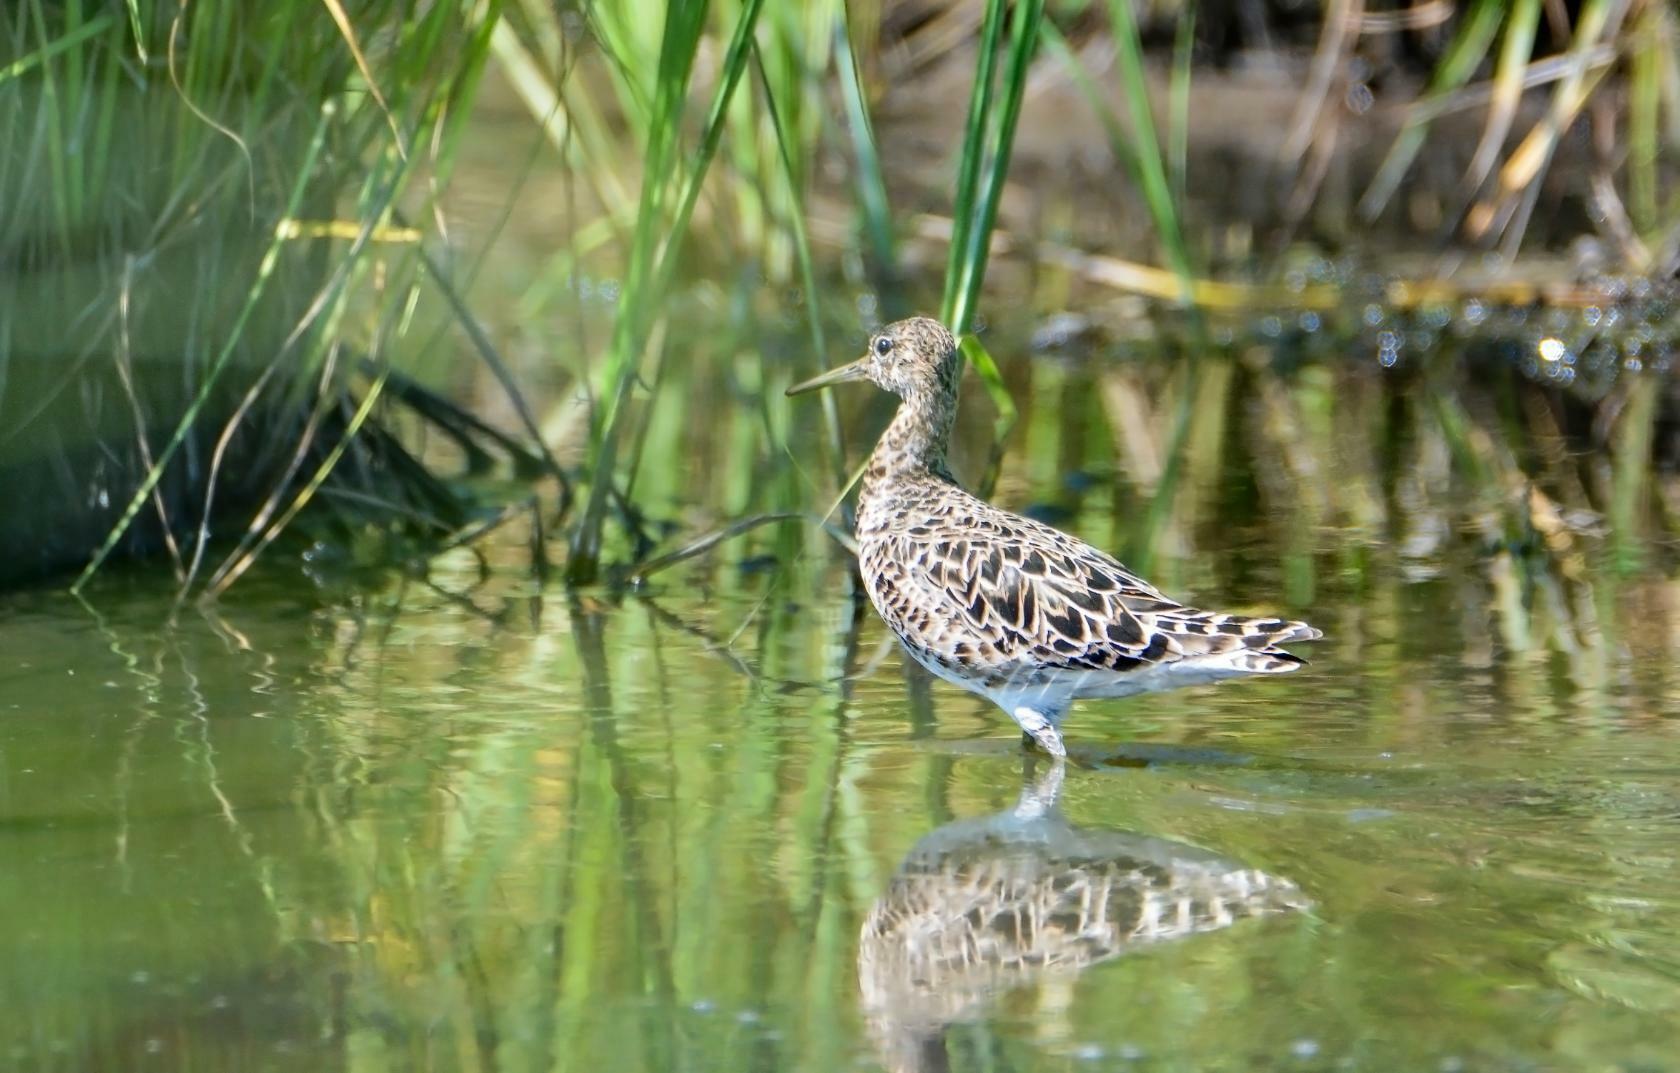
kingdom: Animalia
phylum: Chordata
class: Aves
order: Charadriiformes
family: Scolopacidae
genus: Calidris
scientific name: Calidris pugnax
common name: Ruff
